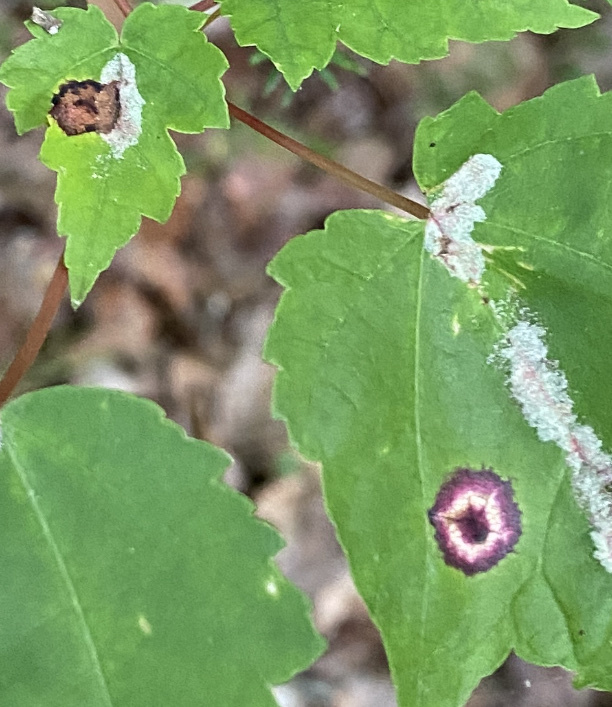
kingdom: Animalia
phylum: Arthropoda
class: Insecta
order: Diptera
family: Cecidomyiidae
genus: Acericecis
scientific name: Acericecis ocellaris
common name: Ocellate gall midge
